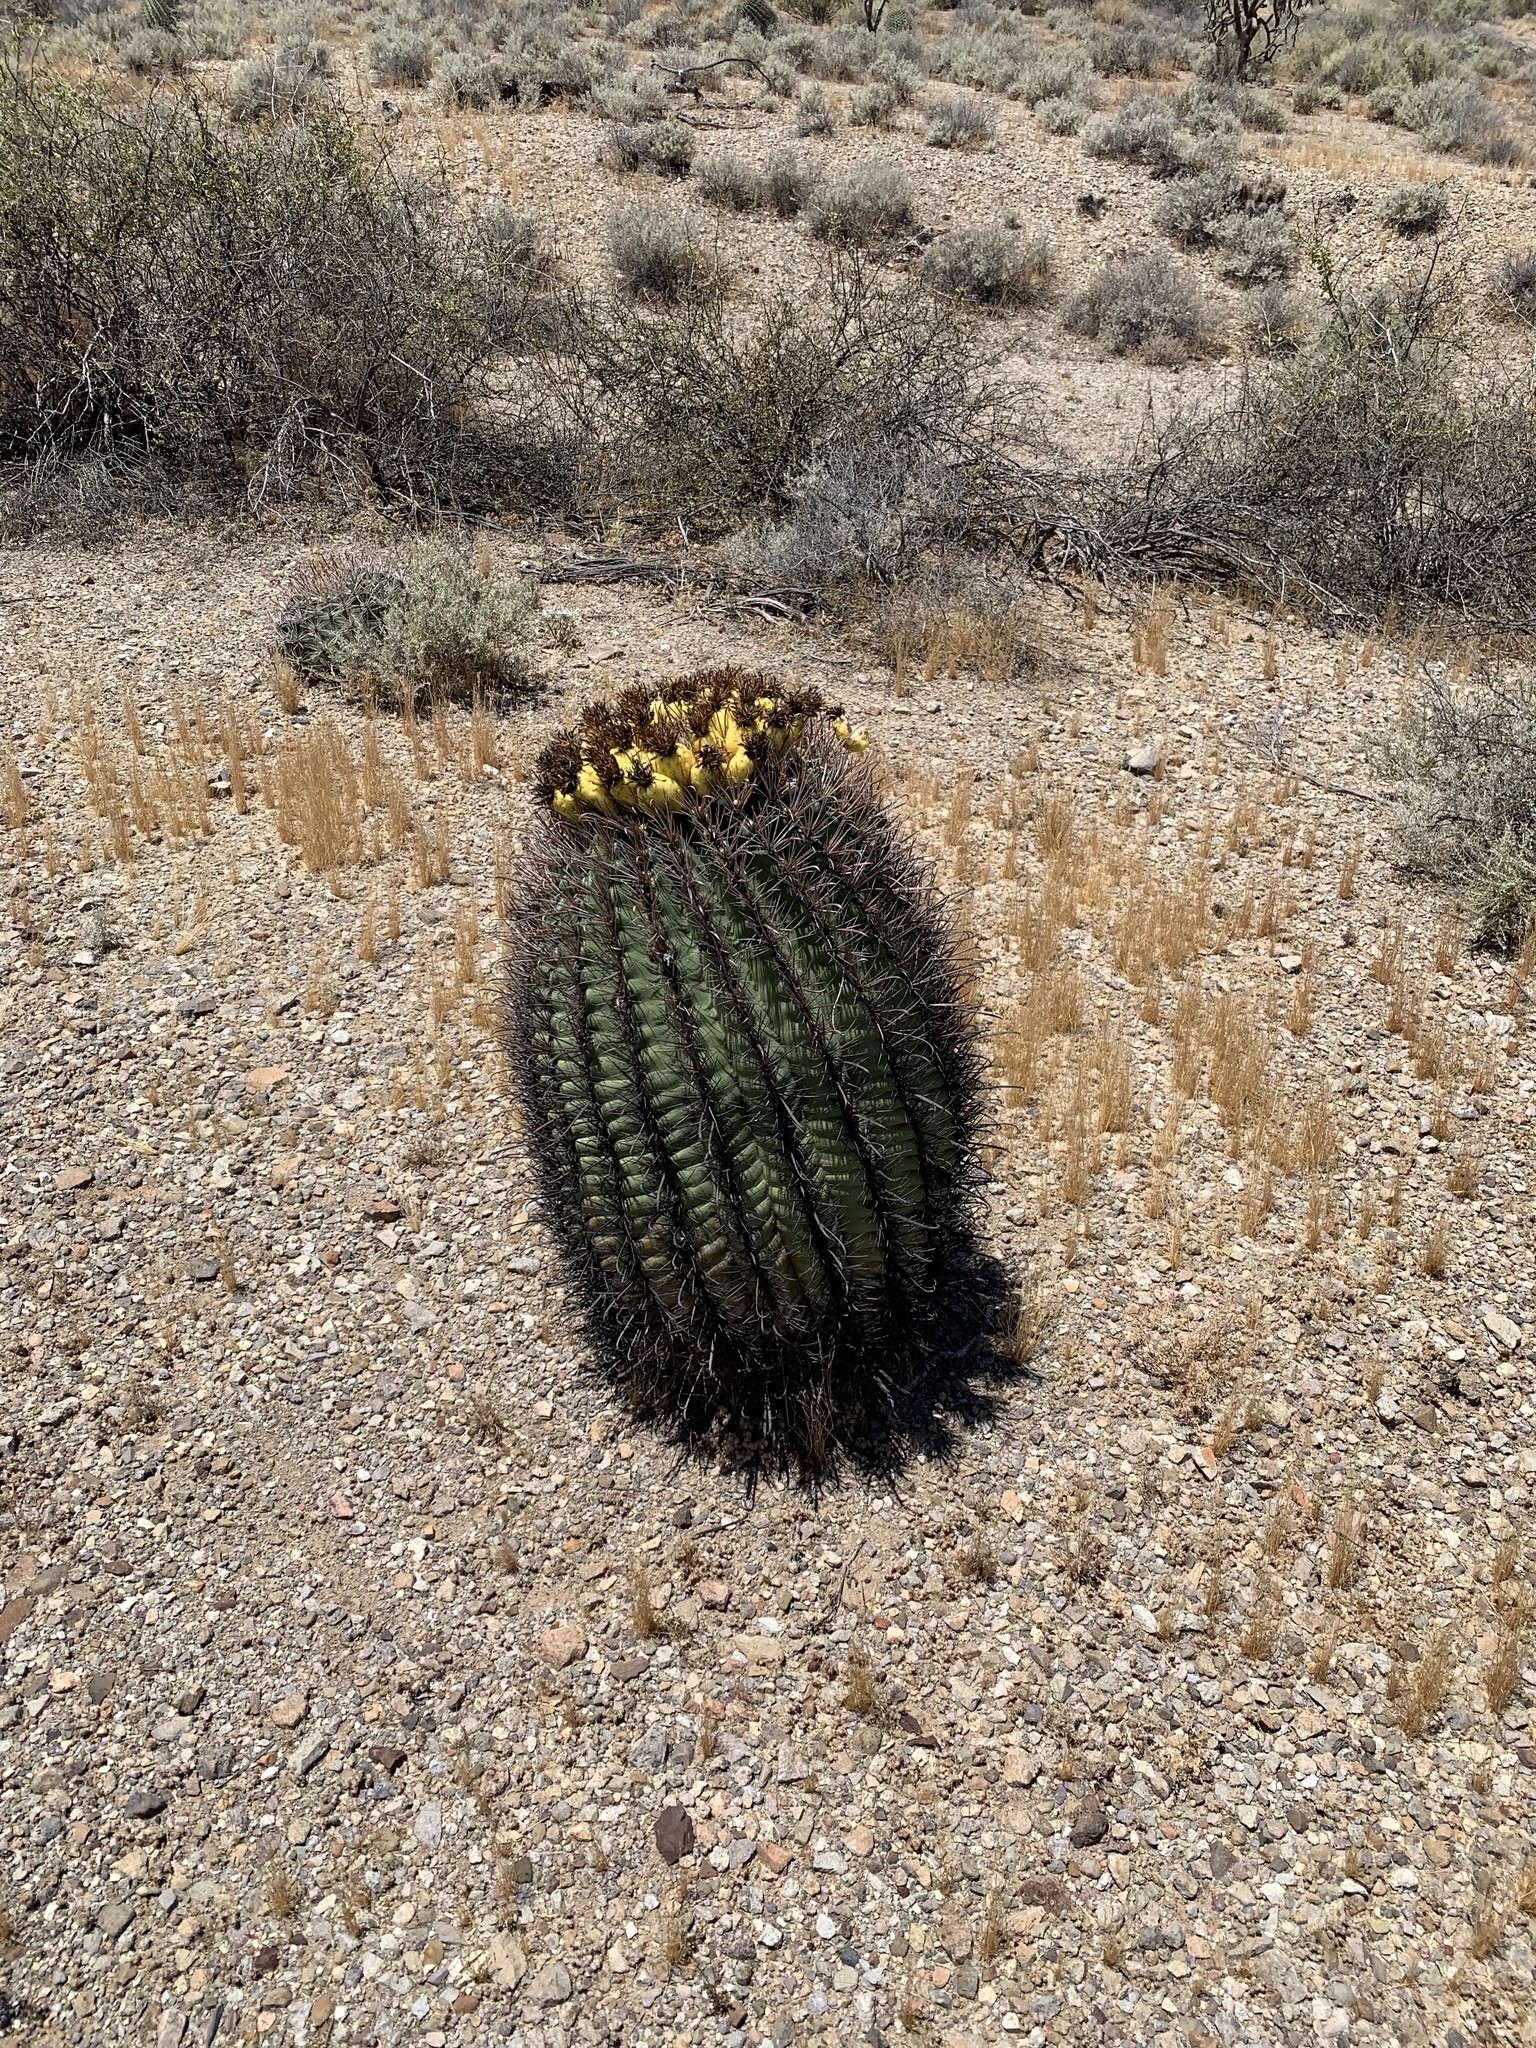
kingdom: Plantae
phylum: Tracheophyta
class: Magnoliopsida
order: Caryophyllales
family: Cactaceae
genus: Ferocactus
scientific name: Ferocactus wislizeni
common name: Candy barrel cactus
